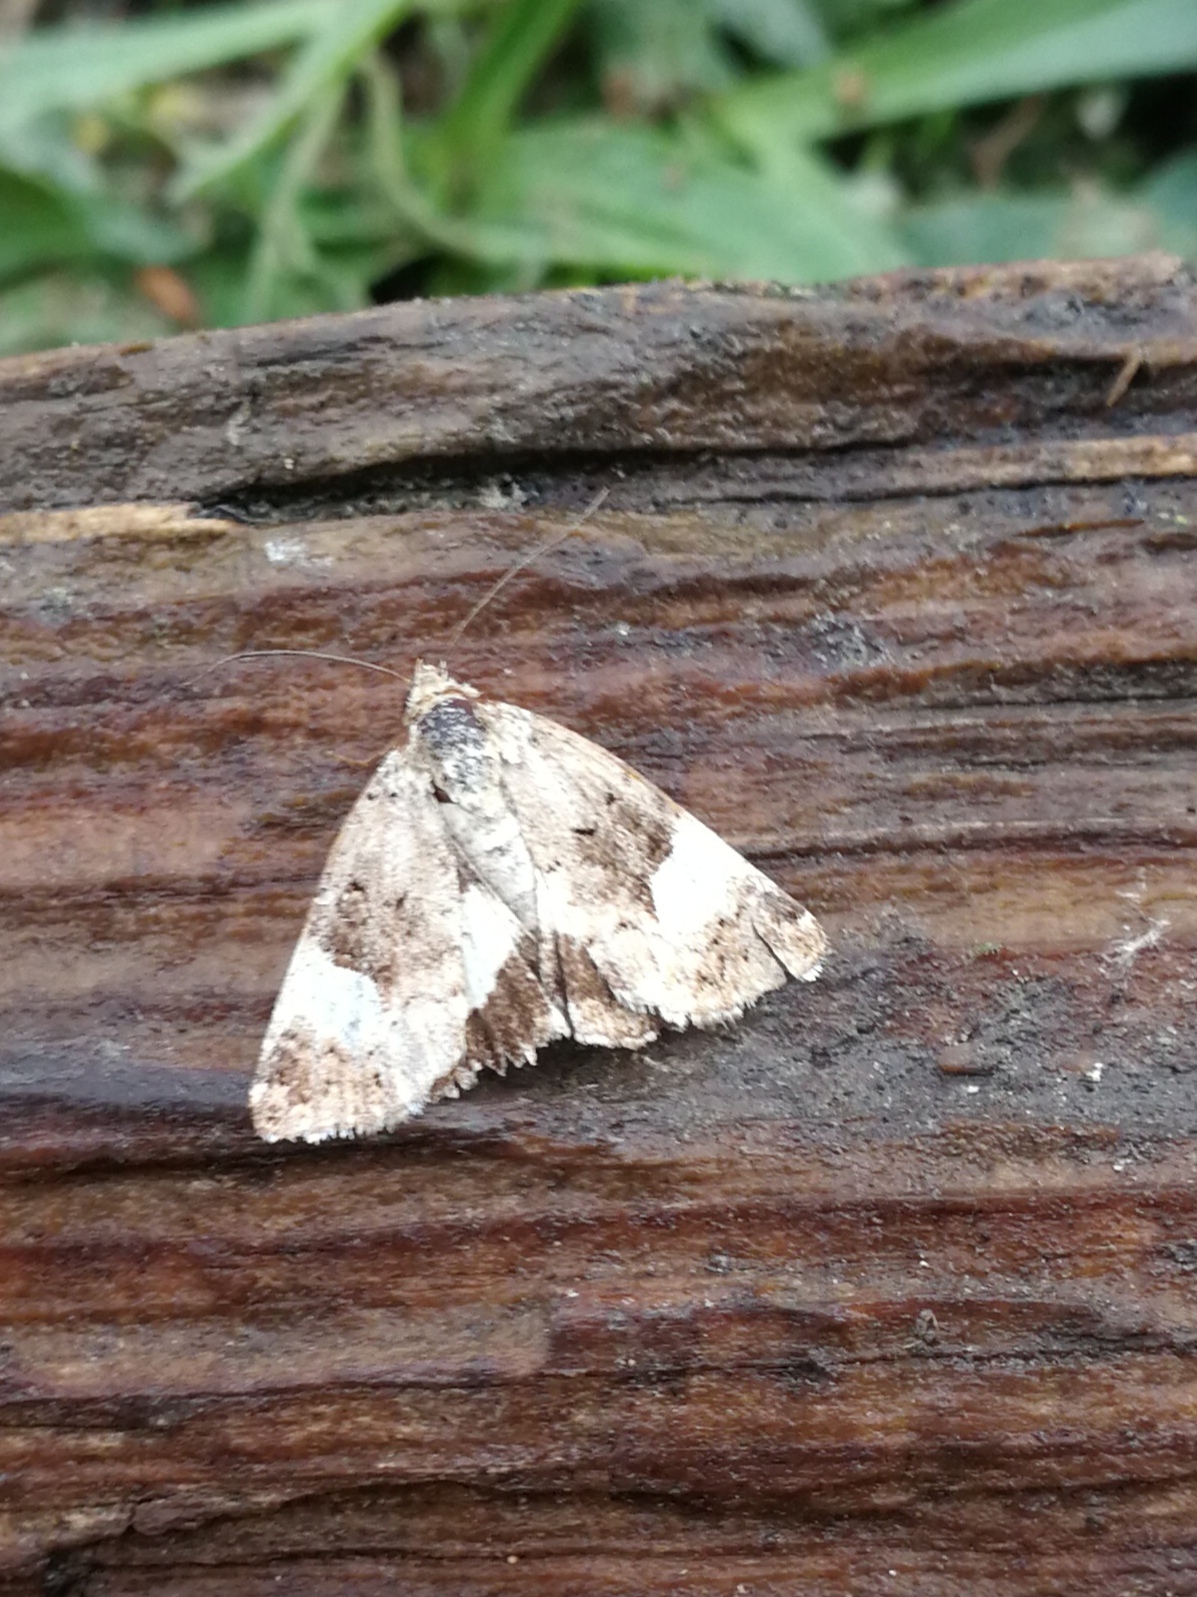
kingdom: Animalia
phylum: Arthropoda
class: Insecta
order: Lepidoptera
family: Erebidae
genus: Tyta
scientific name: Tyta luctuosa
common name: Four-spotted
